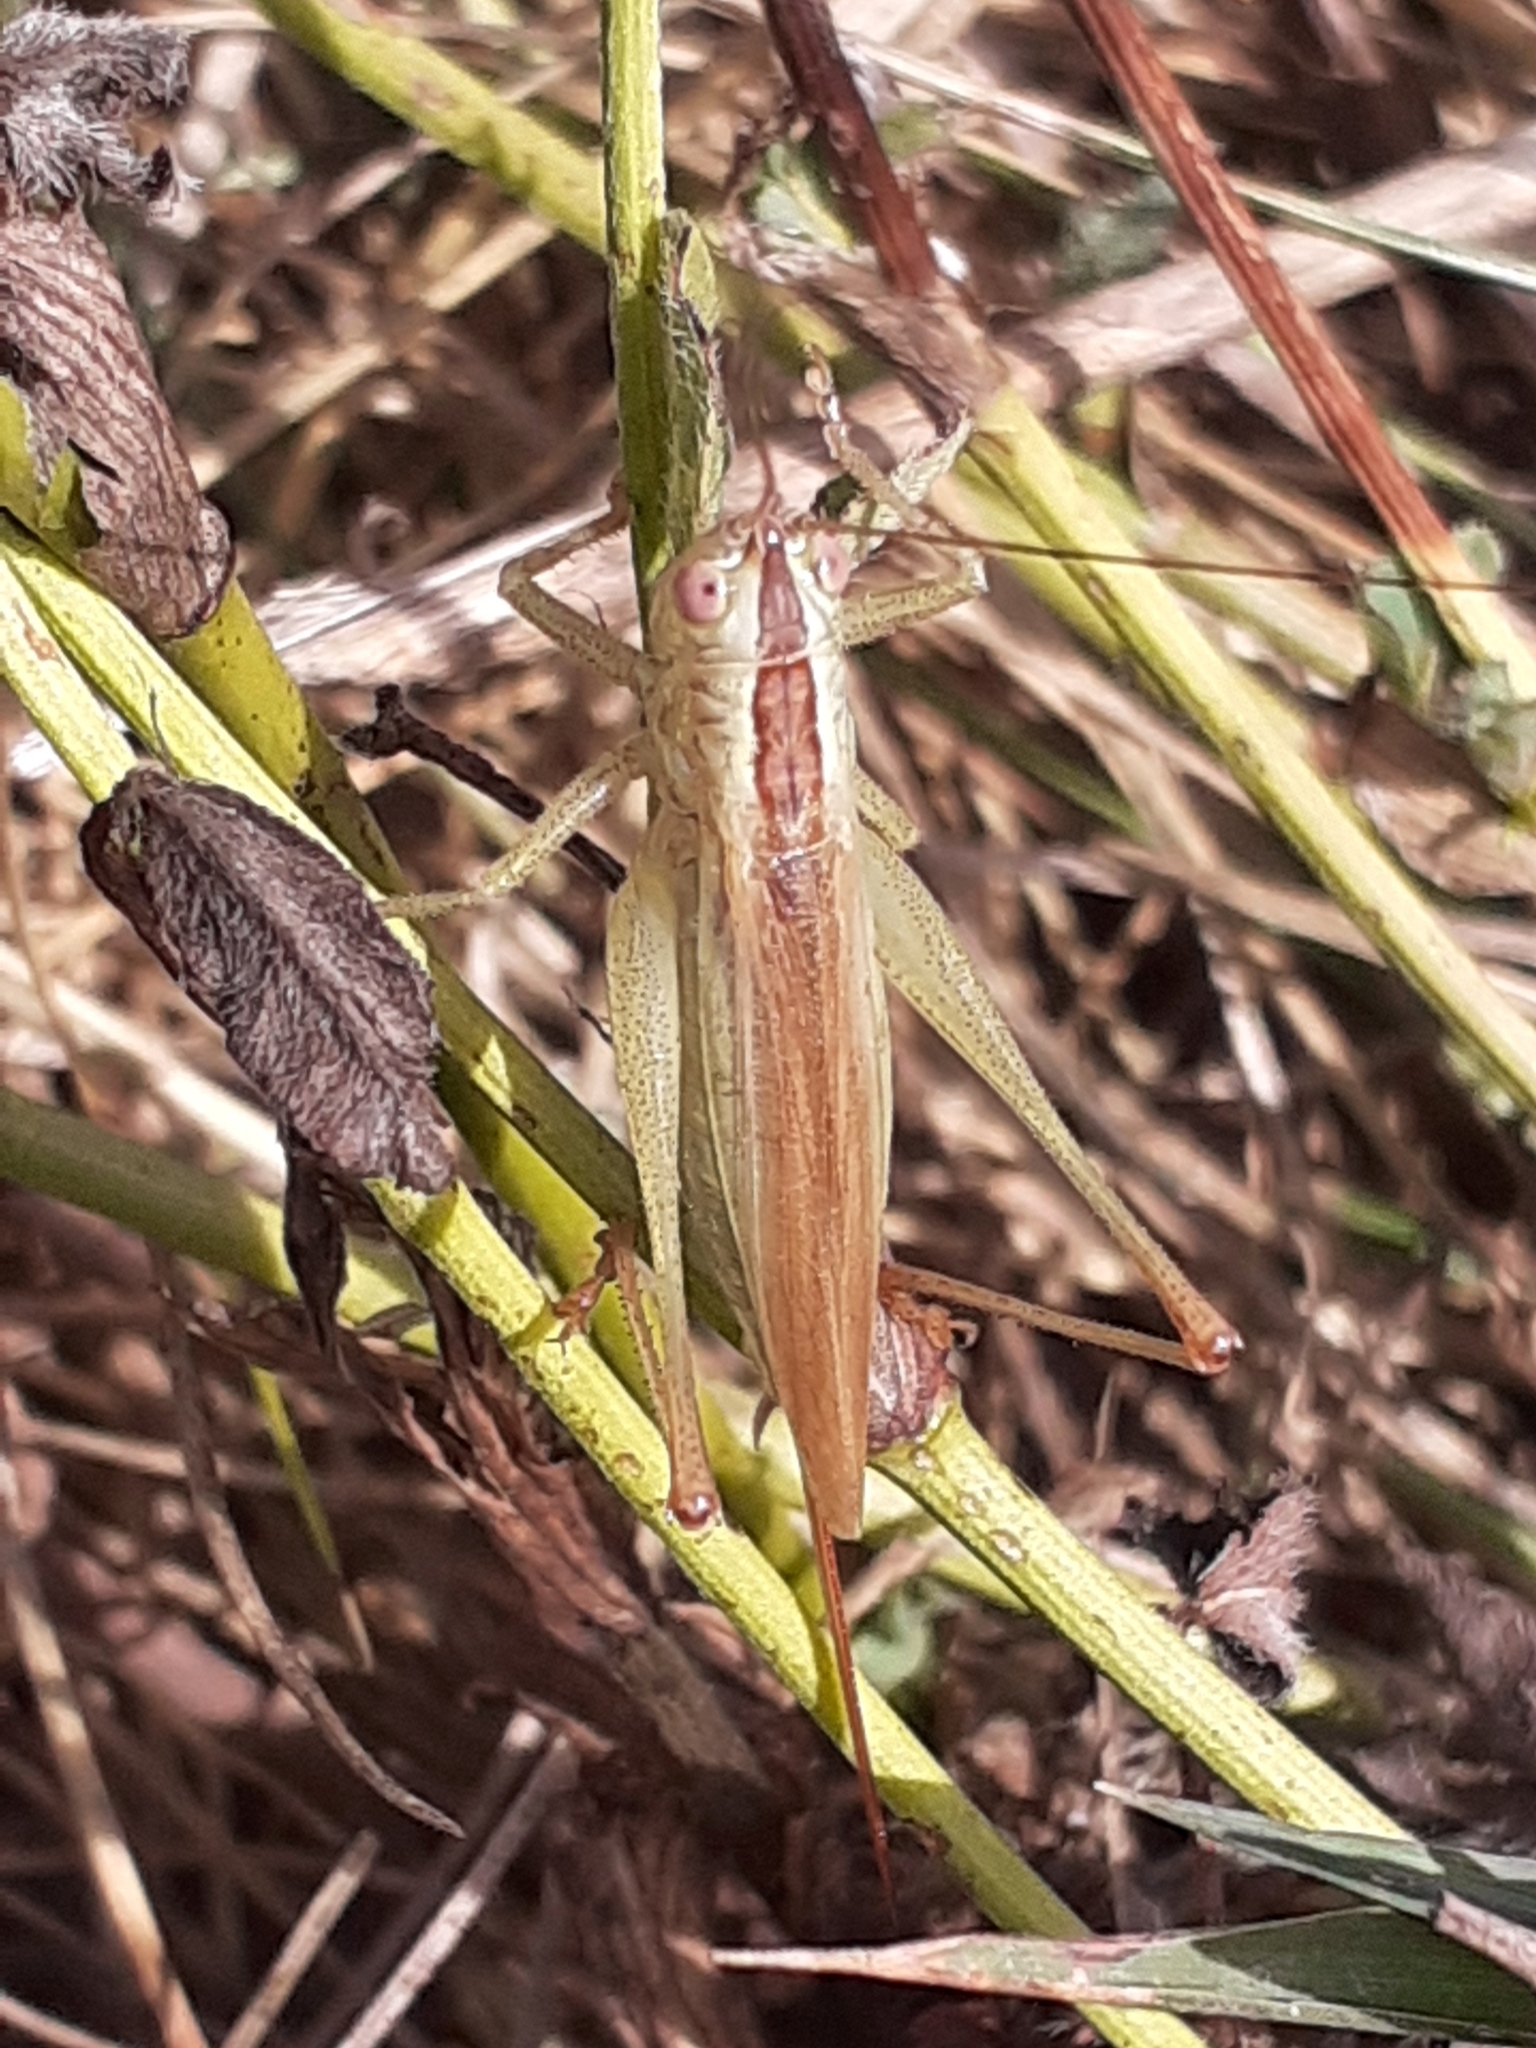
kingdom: Animalia
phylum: Arthropoda
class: Insecta
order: Orthoptera
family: Tettigoniidae
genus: Conocephalus
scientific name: Conocephalus fuscus
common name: Long-winged conehead
